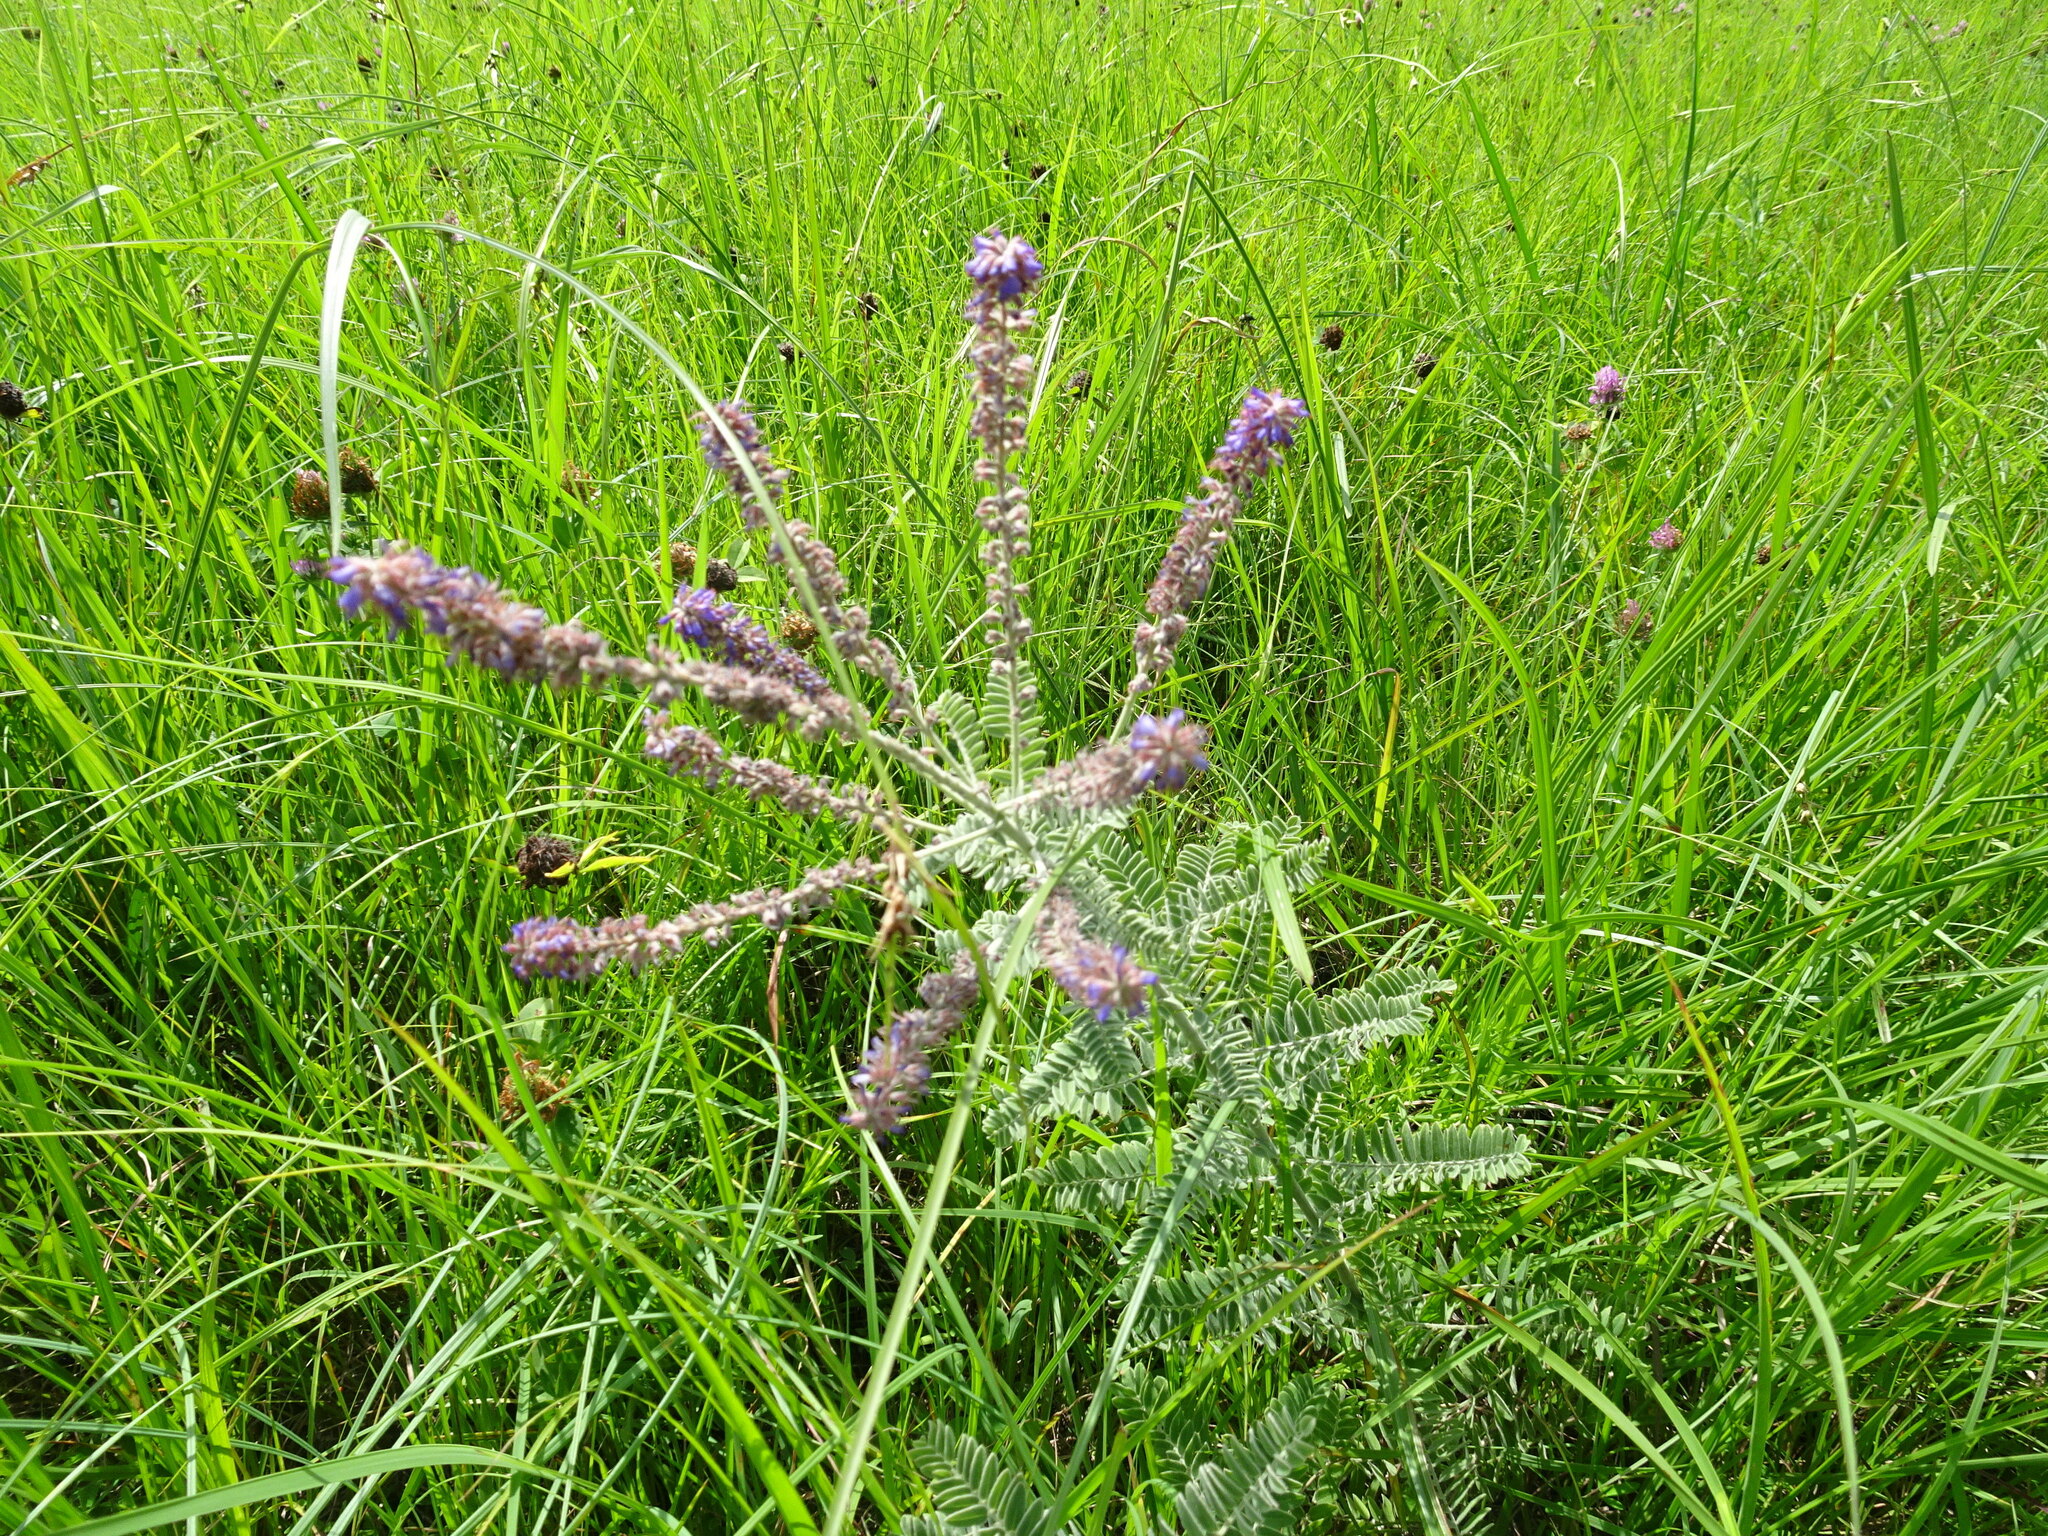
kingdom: Plantae
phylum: Tracheophyta
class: Magnoliopsida
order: Fabales
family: Fabaceae
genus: Amorpha
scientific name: Amorpha canescens
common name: Leadplant
